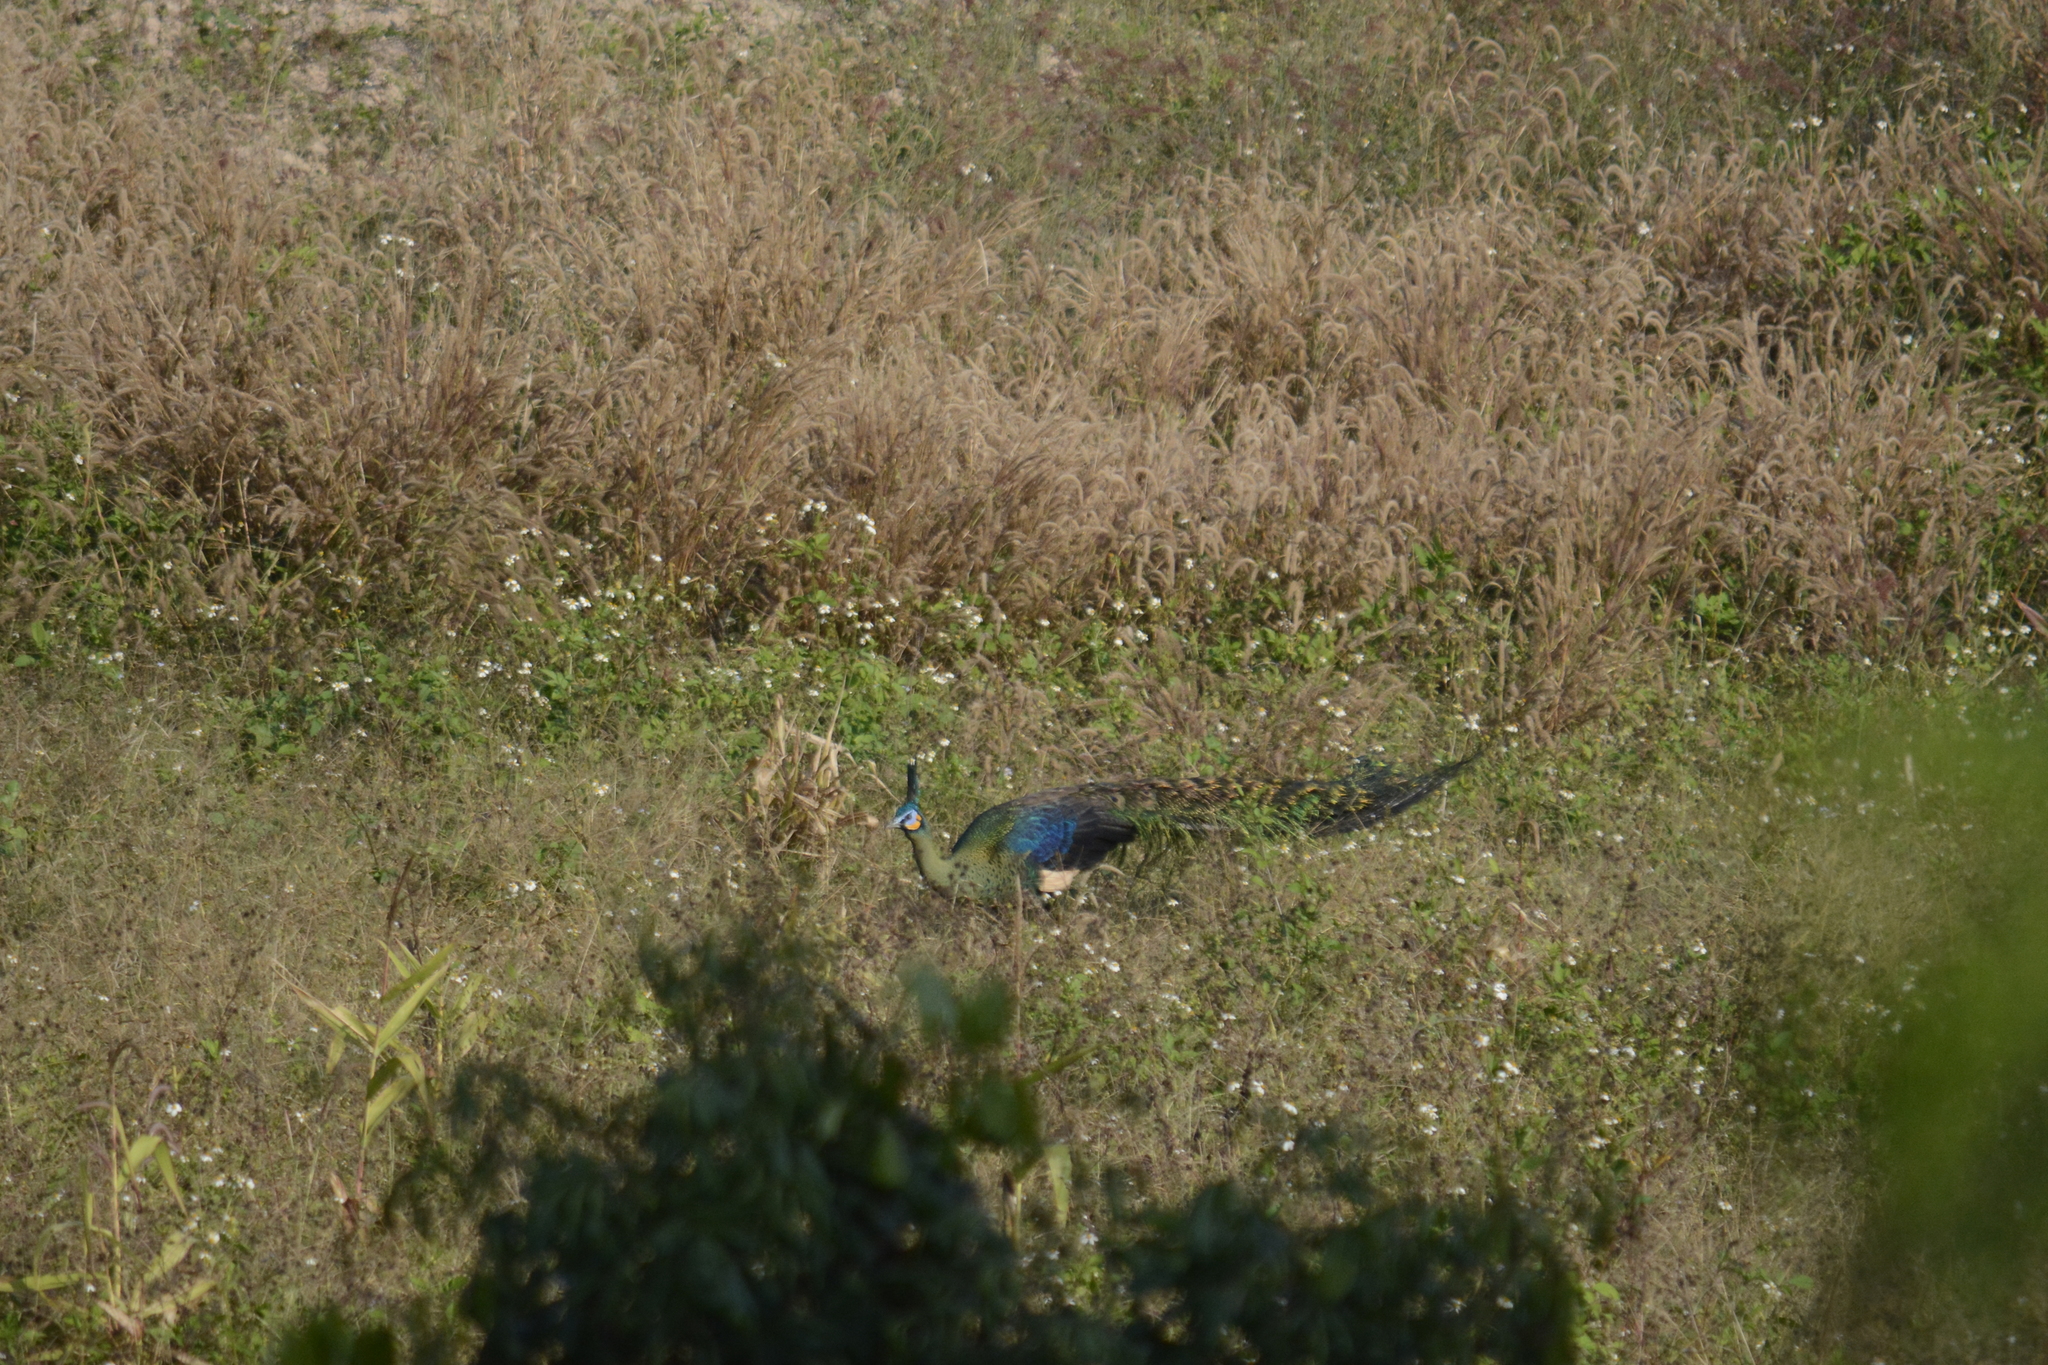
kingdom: Animalia
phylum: Chordata
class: Aves
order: Galliformes
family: Phasianidae
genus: Pavo
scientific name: Pavo muticus
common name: Green peafowl
